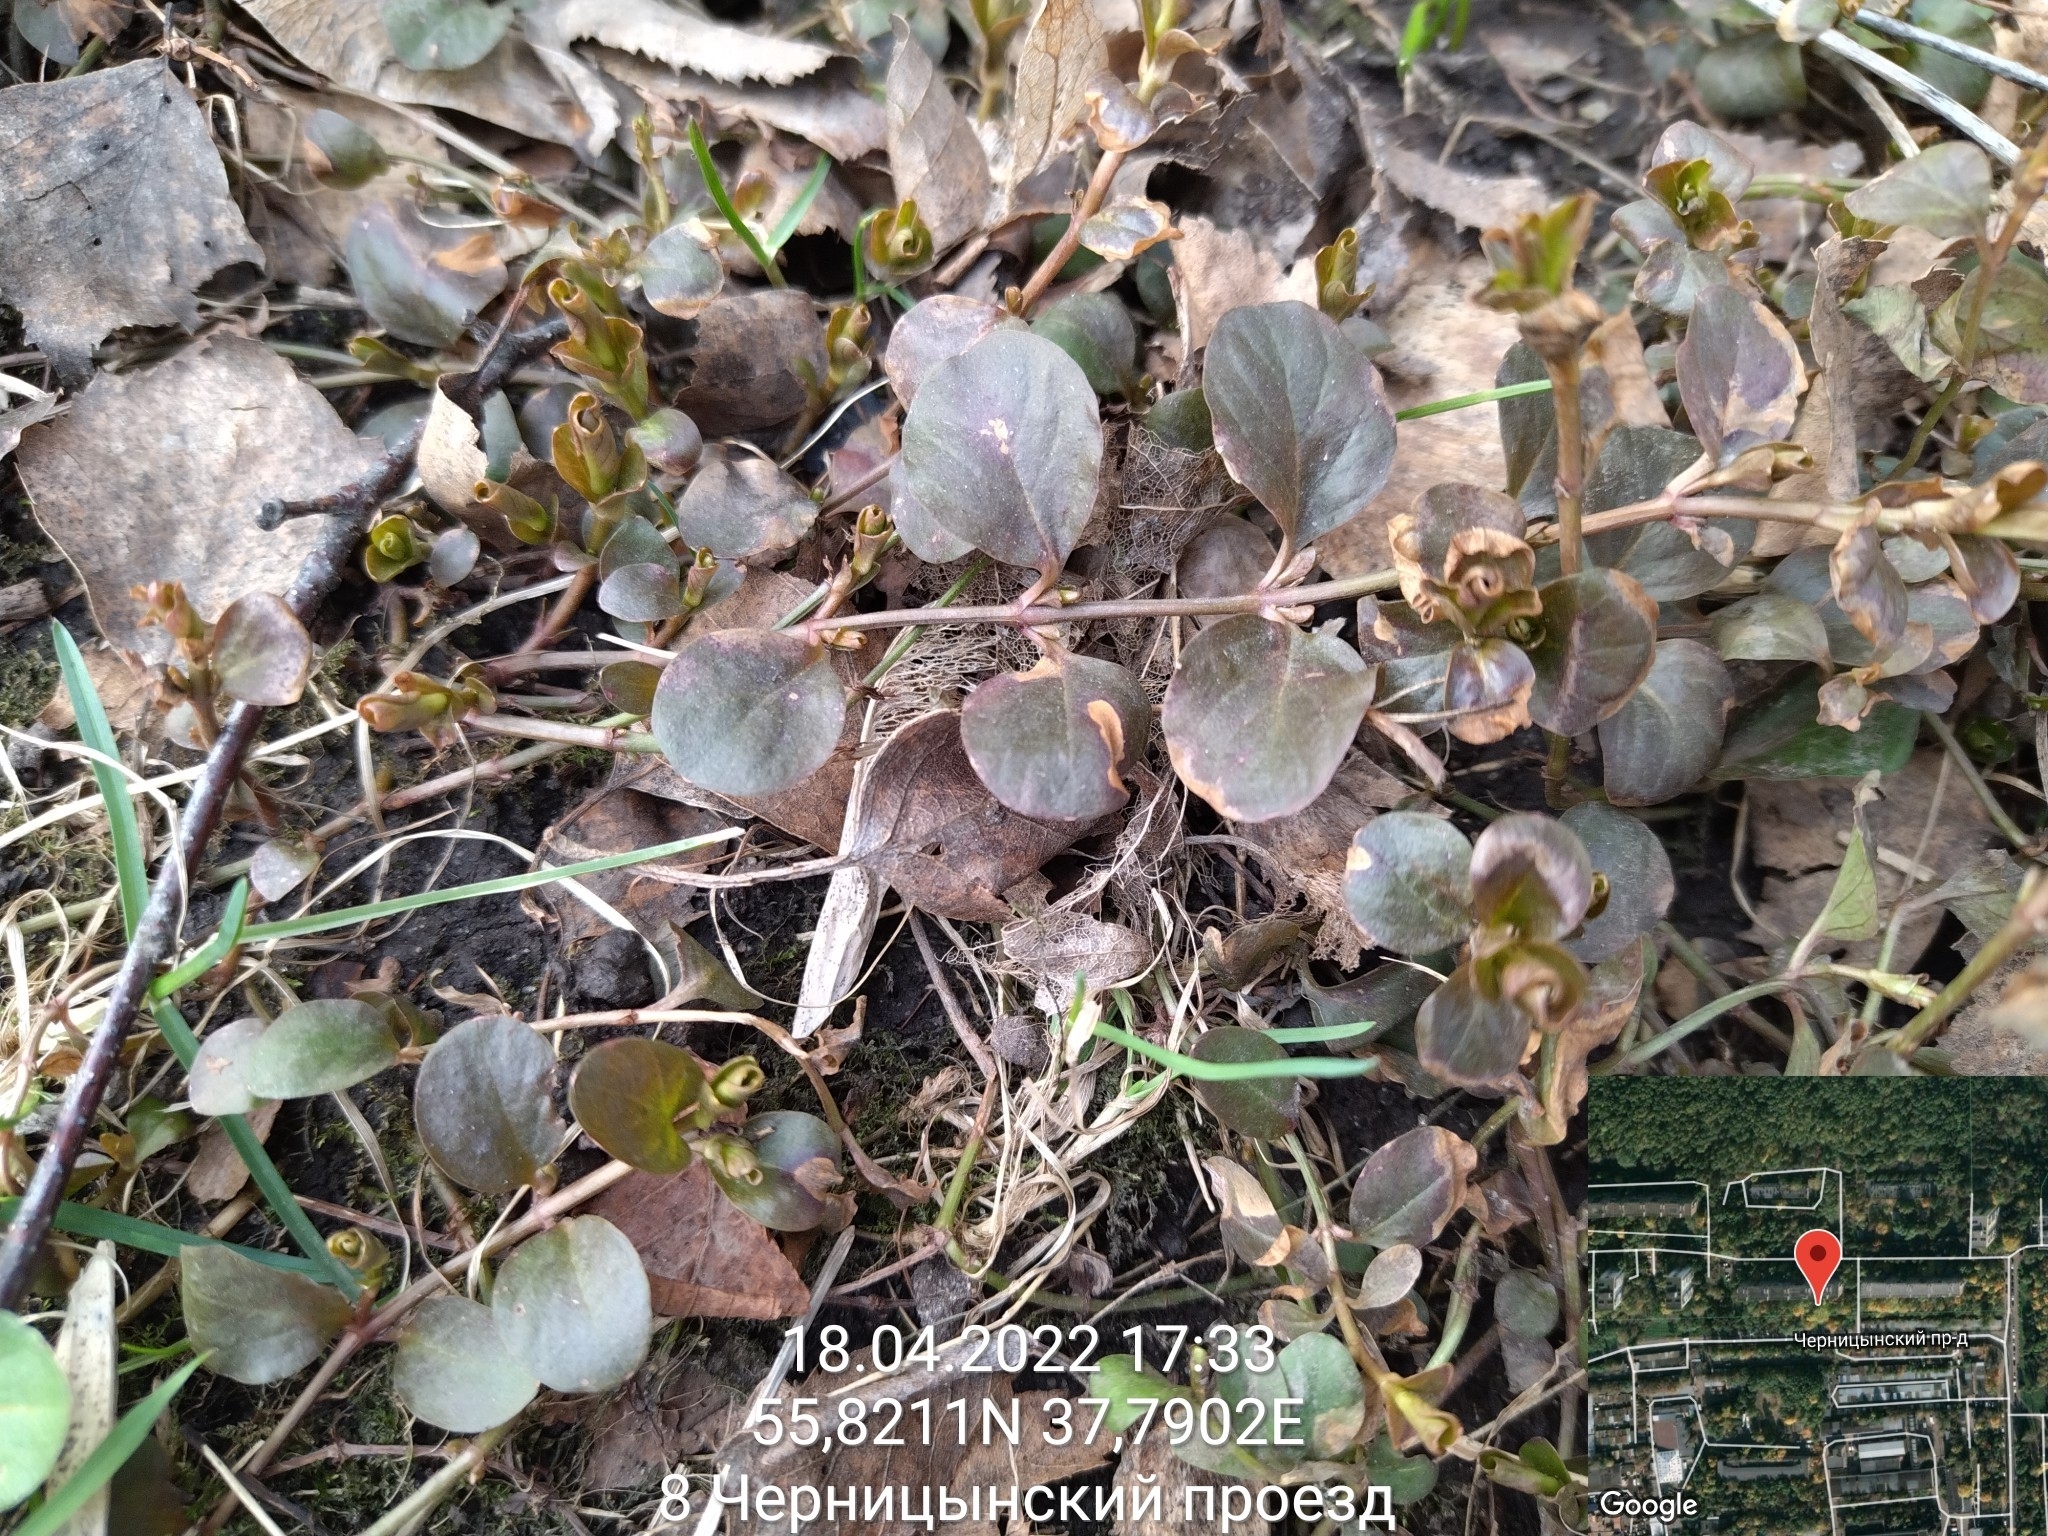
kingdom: Plantae
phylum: Tracheophyta
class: Magnoliopsida
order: Ericales
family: Primulaceae
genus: Lysimachia
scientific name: Lysimachia nummularia
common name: Moneywort
